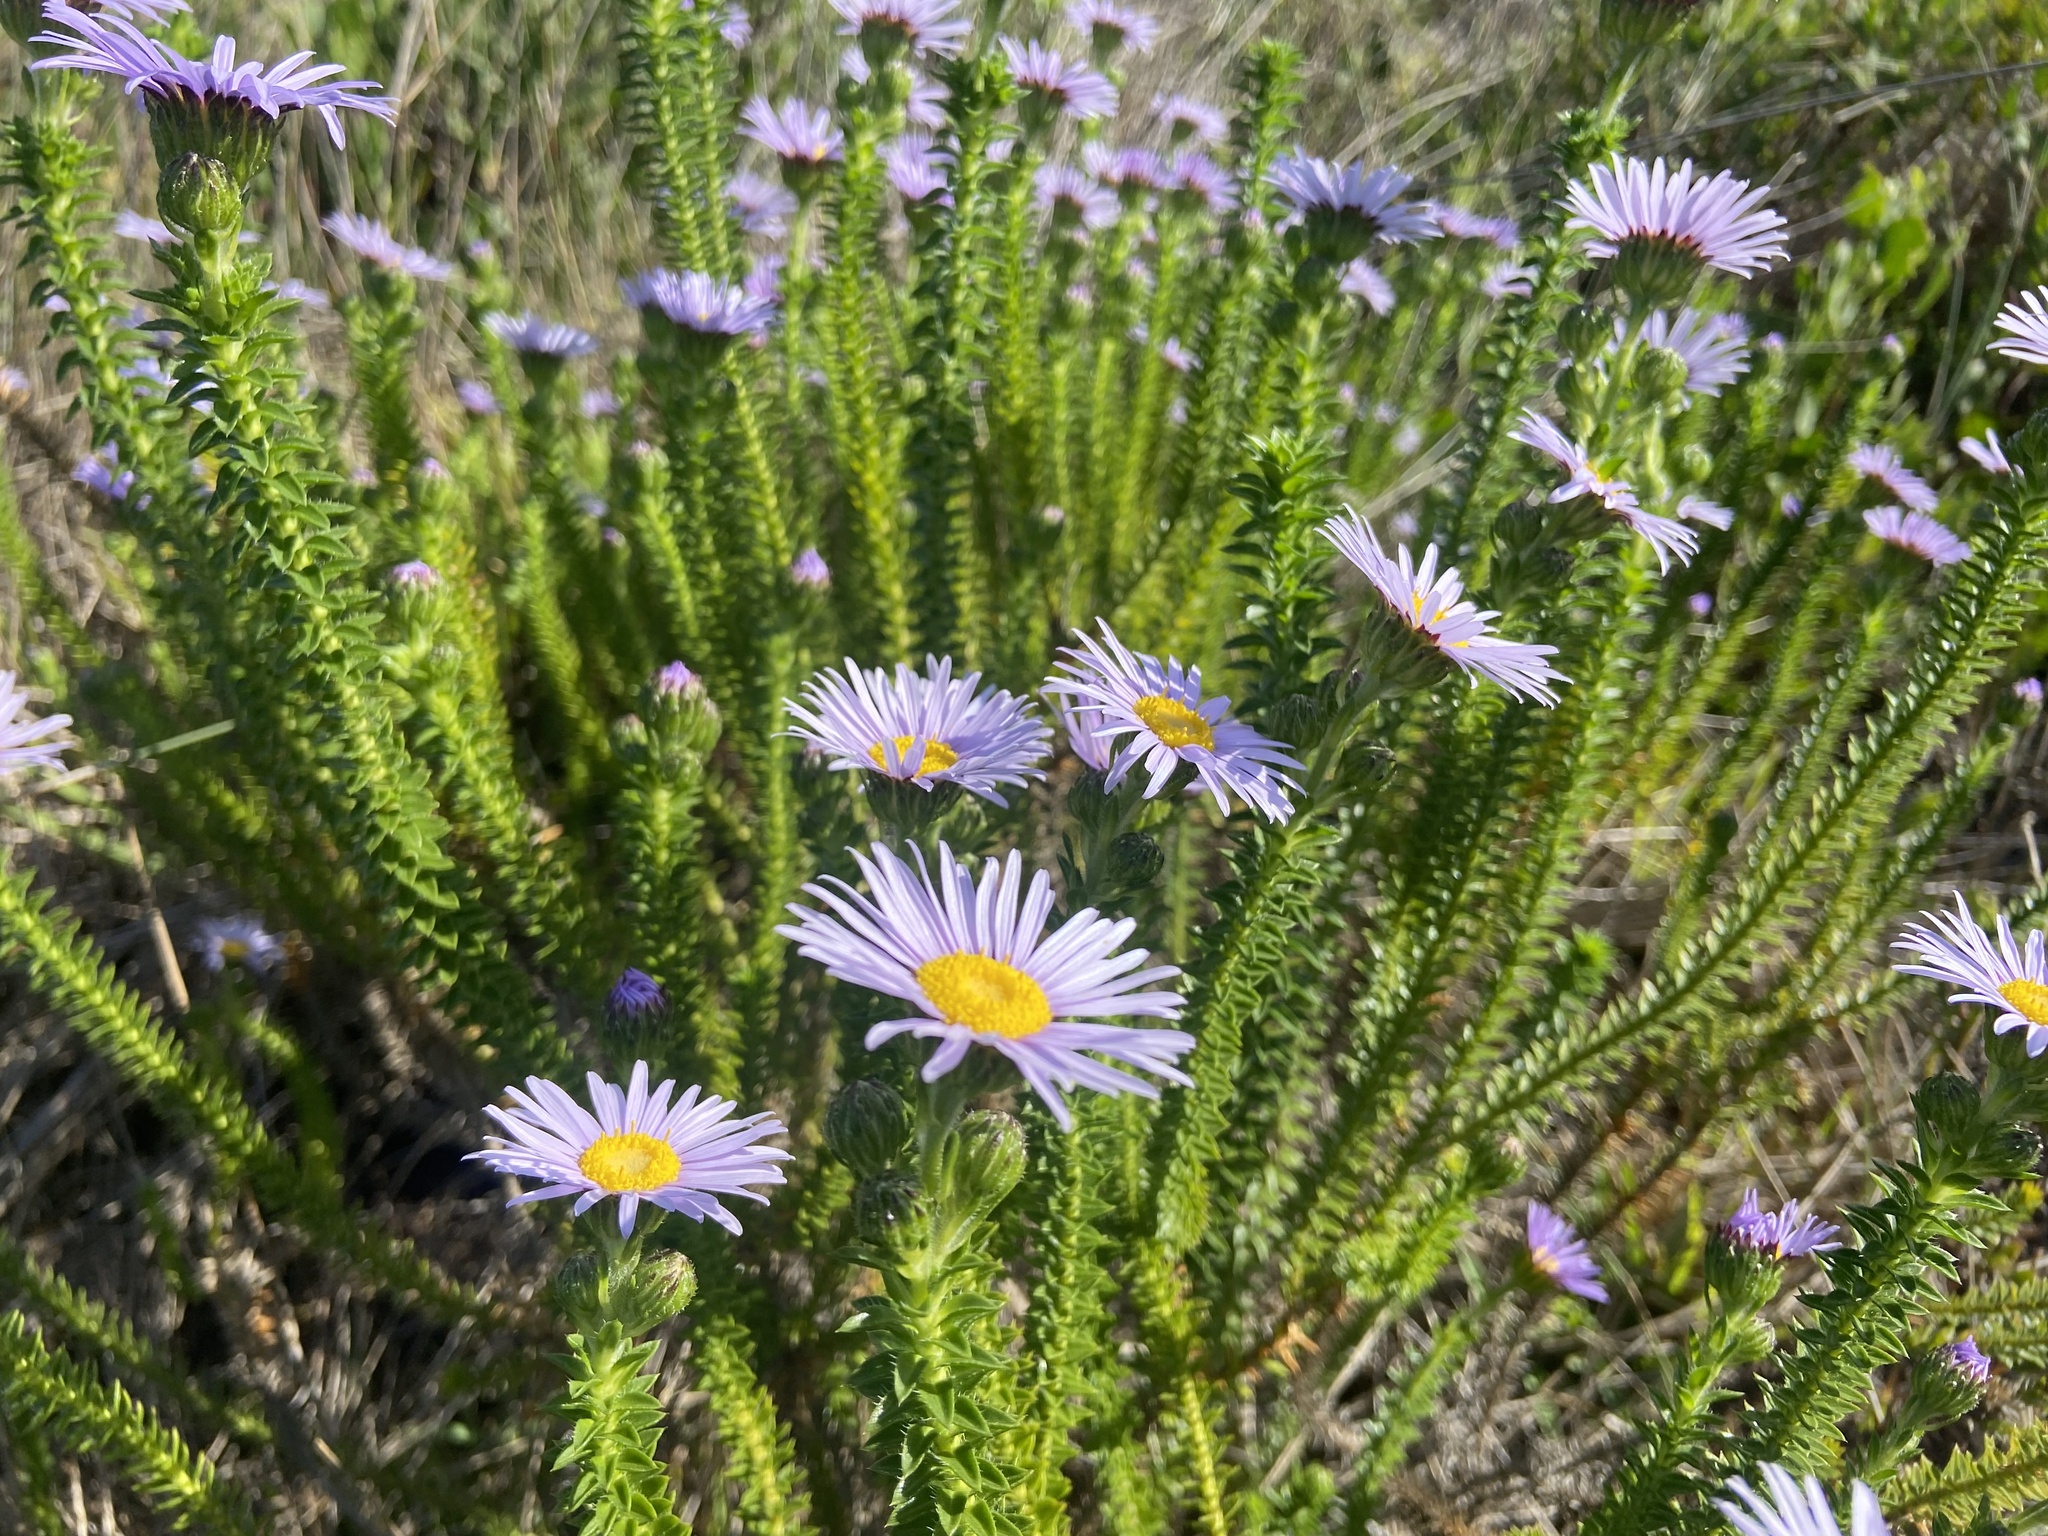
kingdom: Plantae
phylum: Tracheophyta
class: Magnoliopsida
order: Asterales
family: Asteraceae
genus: Felicia
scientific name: Felicia echinata
